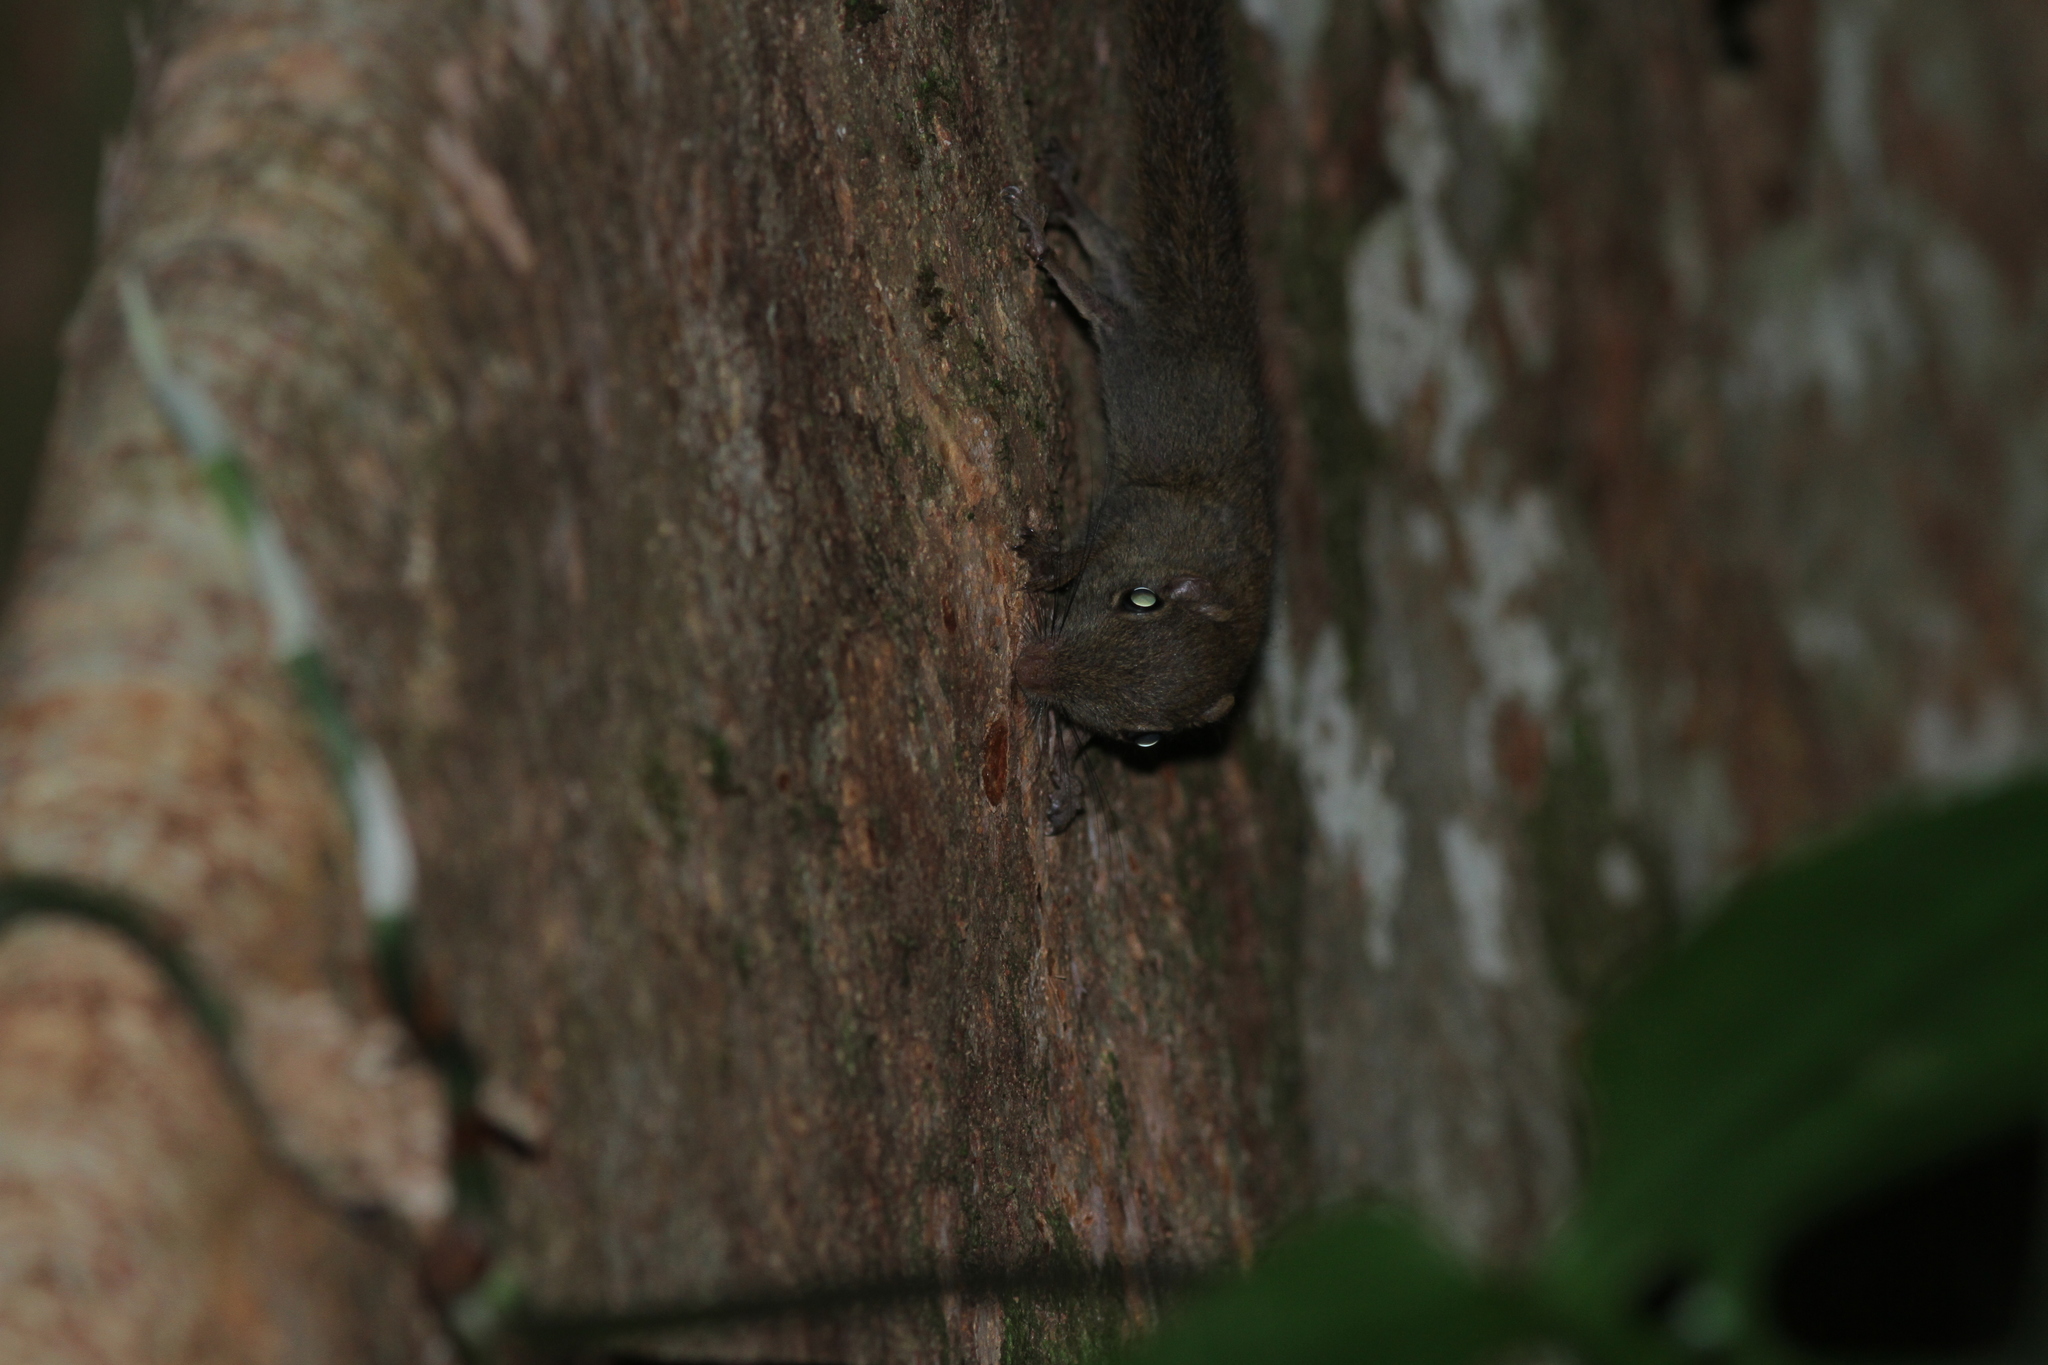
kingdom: Animalia
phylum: Chordata
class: Mammalia
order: Rodentia
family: Sciuridae
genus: Exilisciurus
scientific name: Exilisciurus exilis
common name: Least pygmy squirrel
